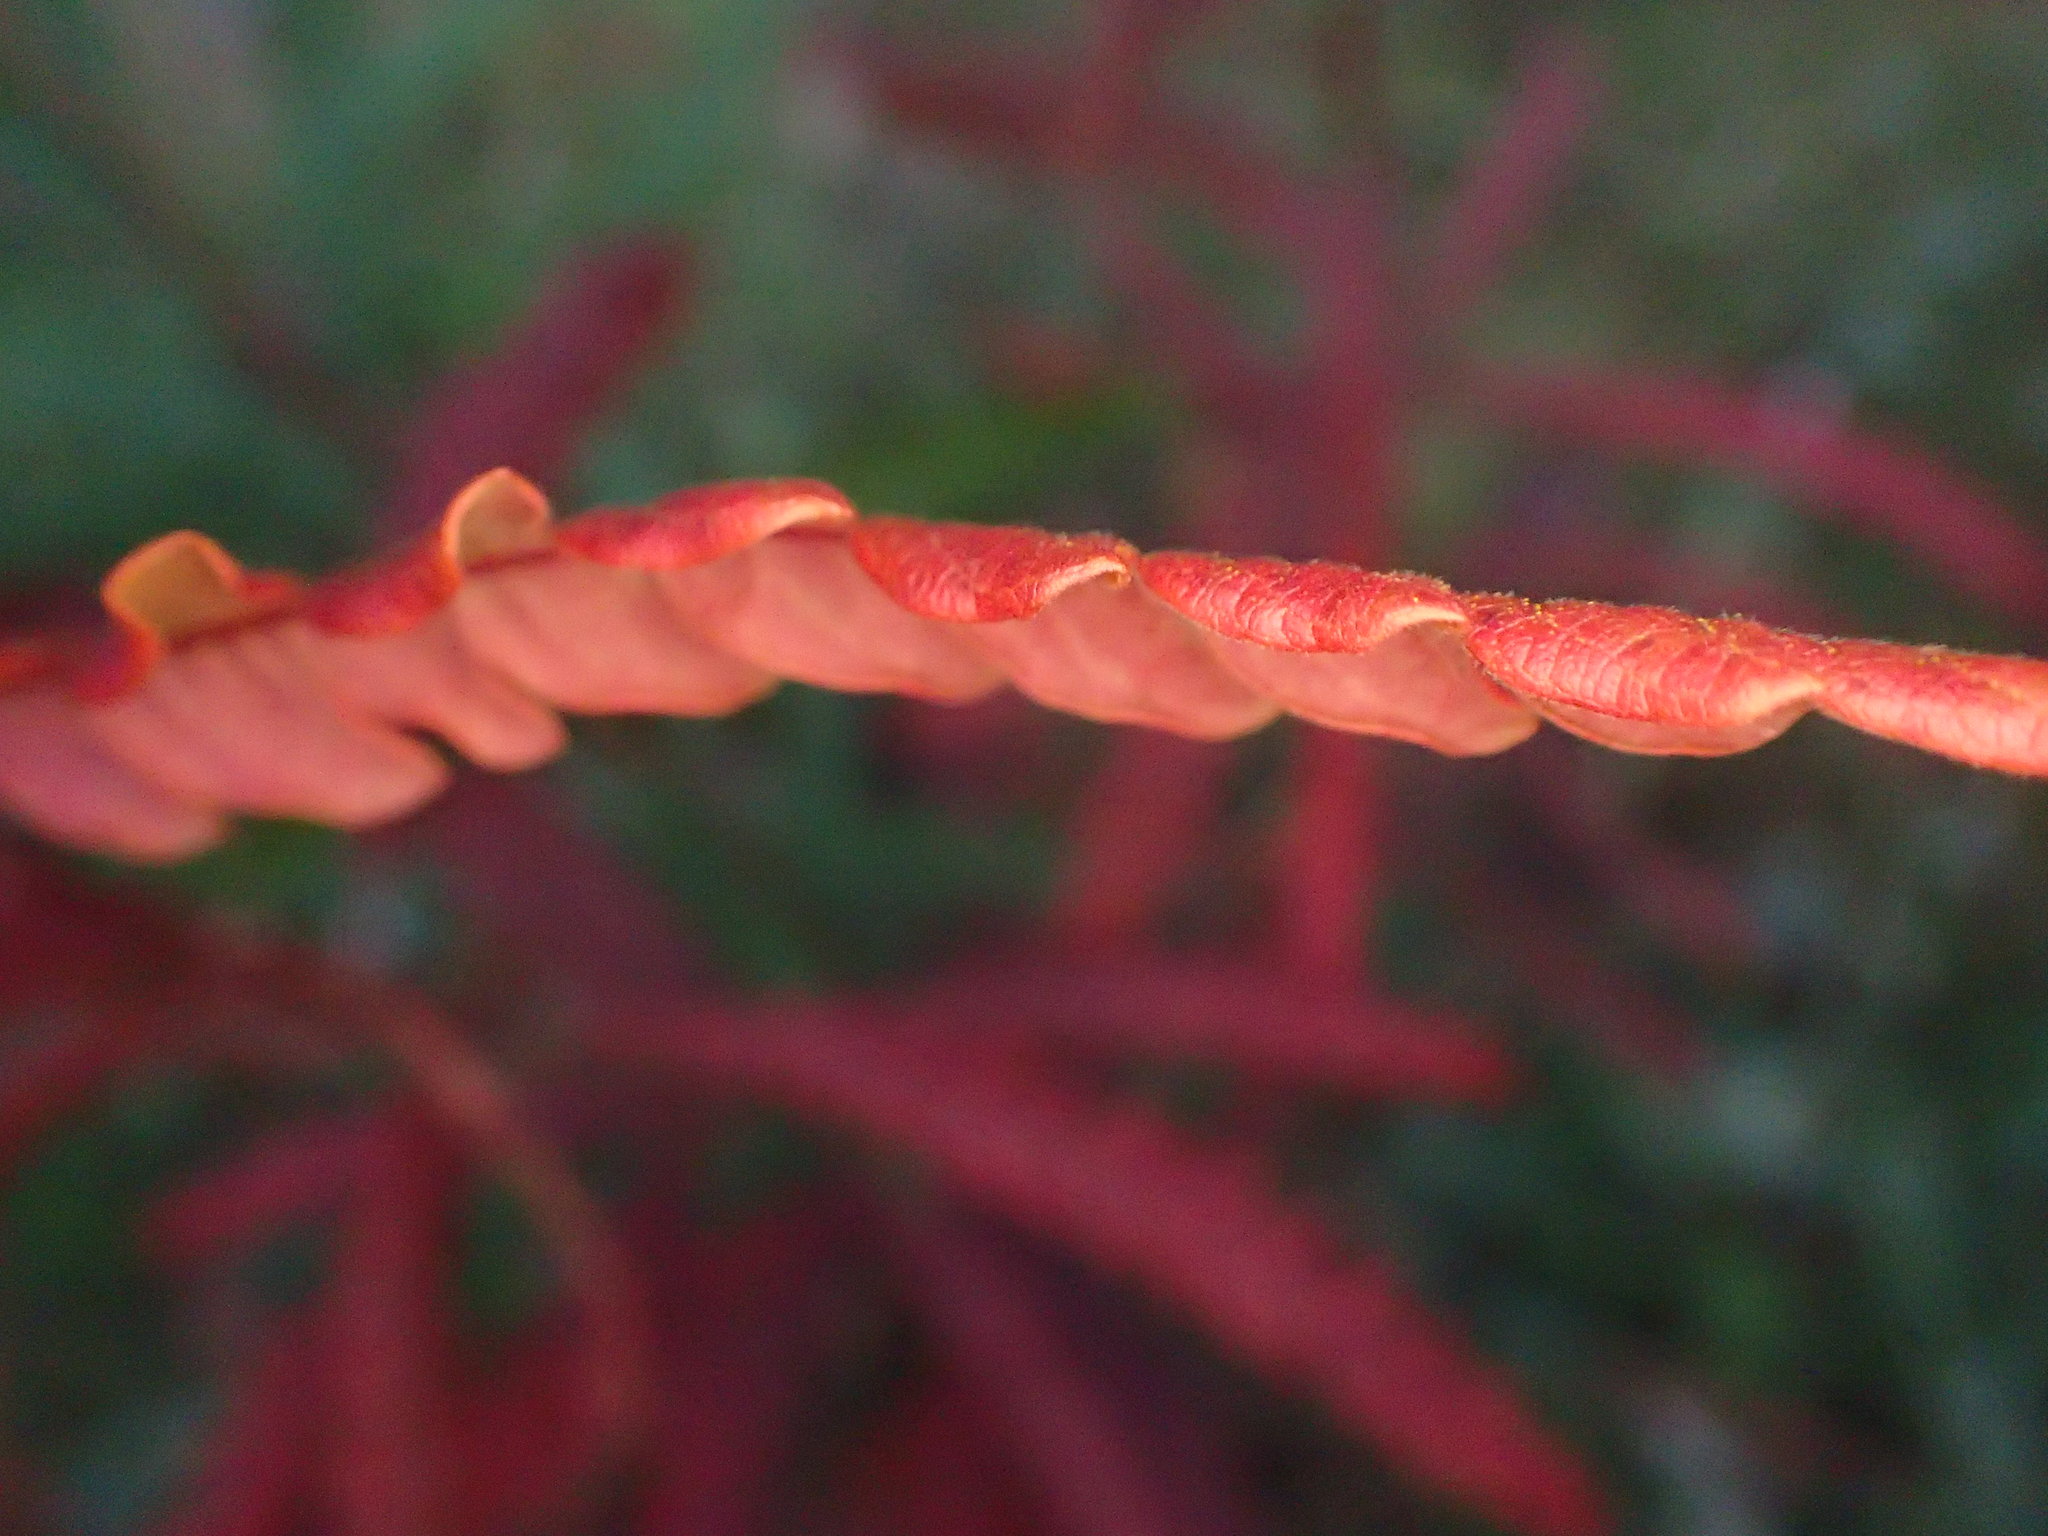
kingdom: Plantae
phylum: Tracheophyta
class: Magnoliopsida
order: Fagales
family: Myricaceae
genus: Comptonia
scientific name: Comptonia peregrina
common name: Sweet-fern
